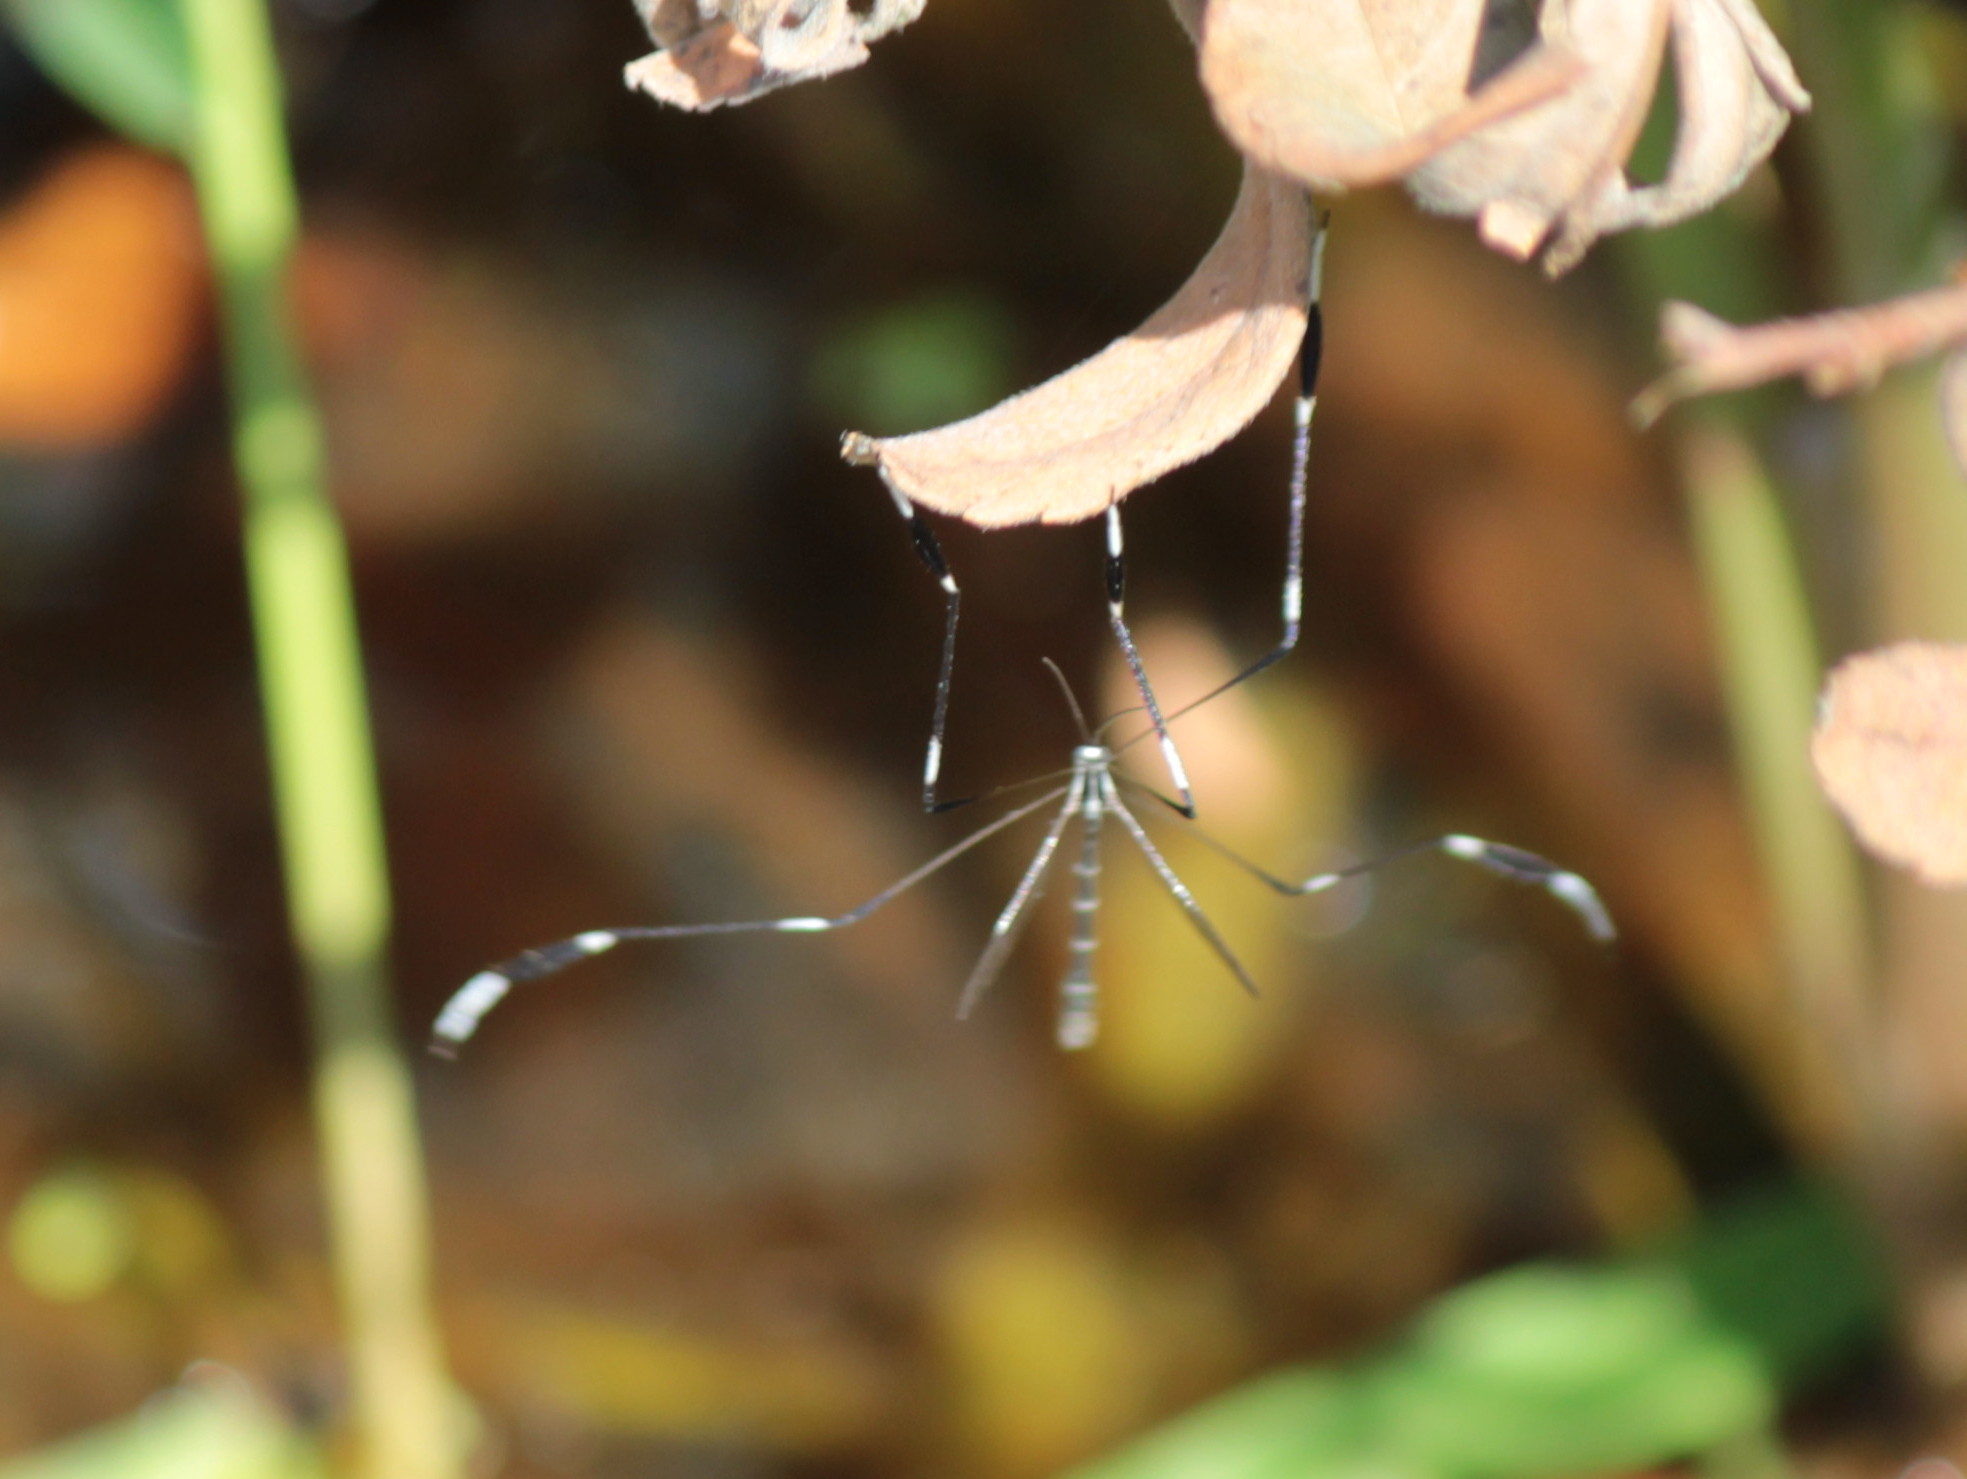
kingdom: Animalia
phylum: Arthropoda
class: Insecta
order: Diptera
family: Ptychopteridae
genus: Bittacomorpha
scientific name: Bittacomorpha clavipes
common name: Eastern phantom crane fly
